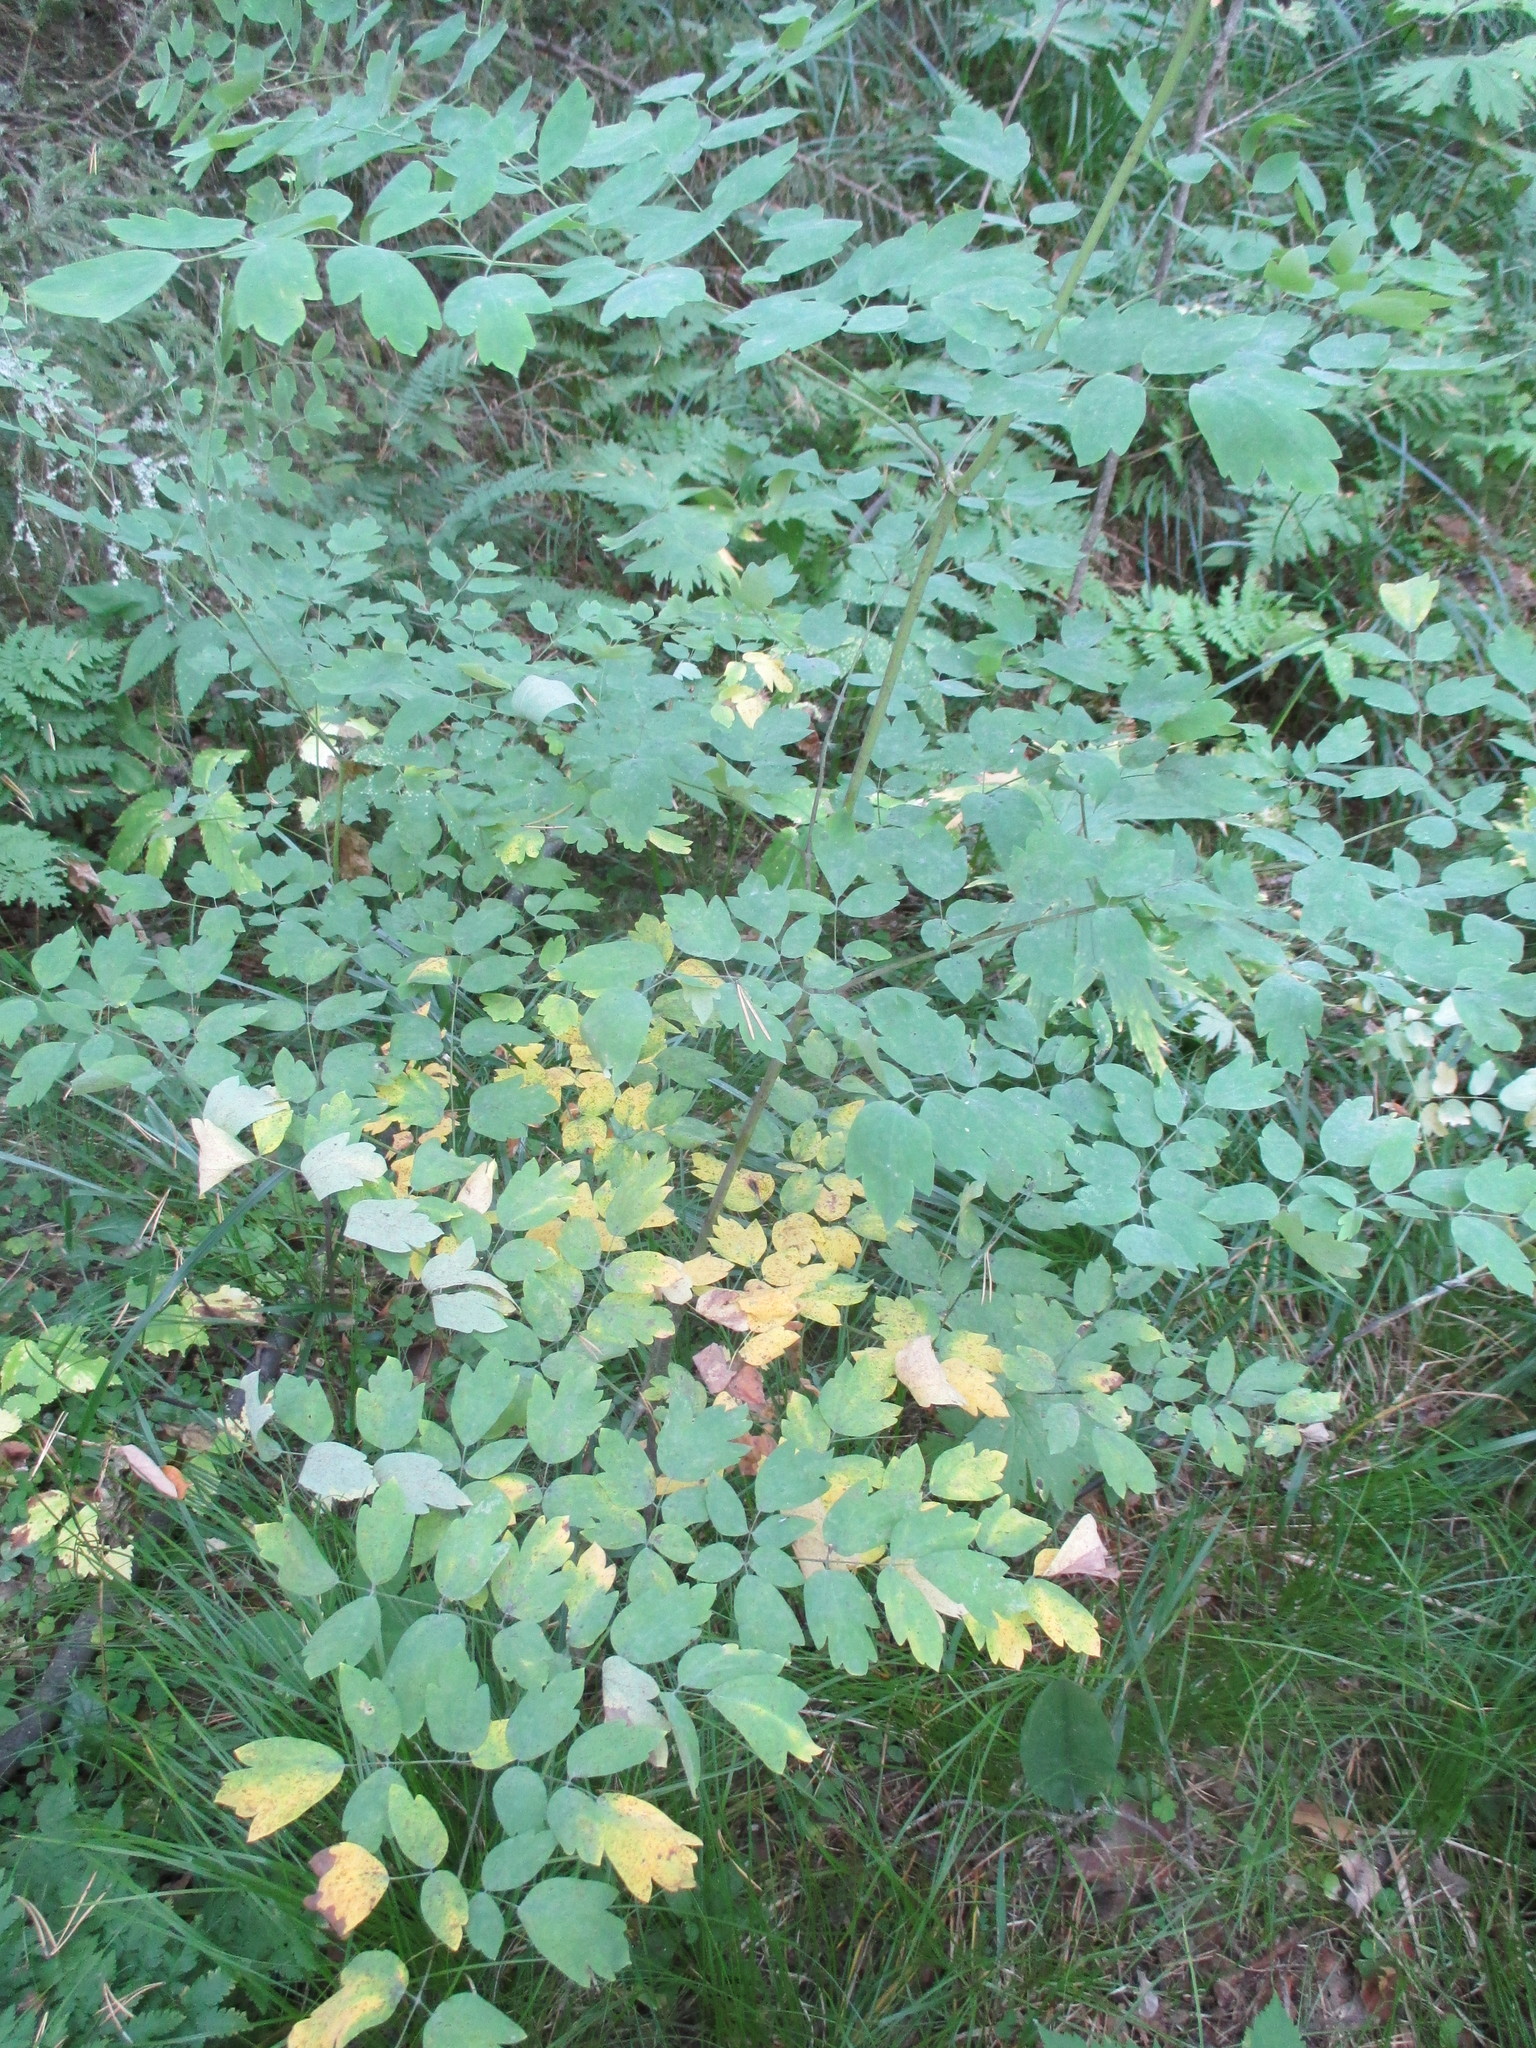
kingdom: Plantae
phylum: Tracheophyta
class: Magnoliopsida
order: Ranunculales
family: Ranunculaceae
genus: Thalictrum
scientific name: Thalictrum minus
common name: Lesser meadow-rue
